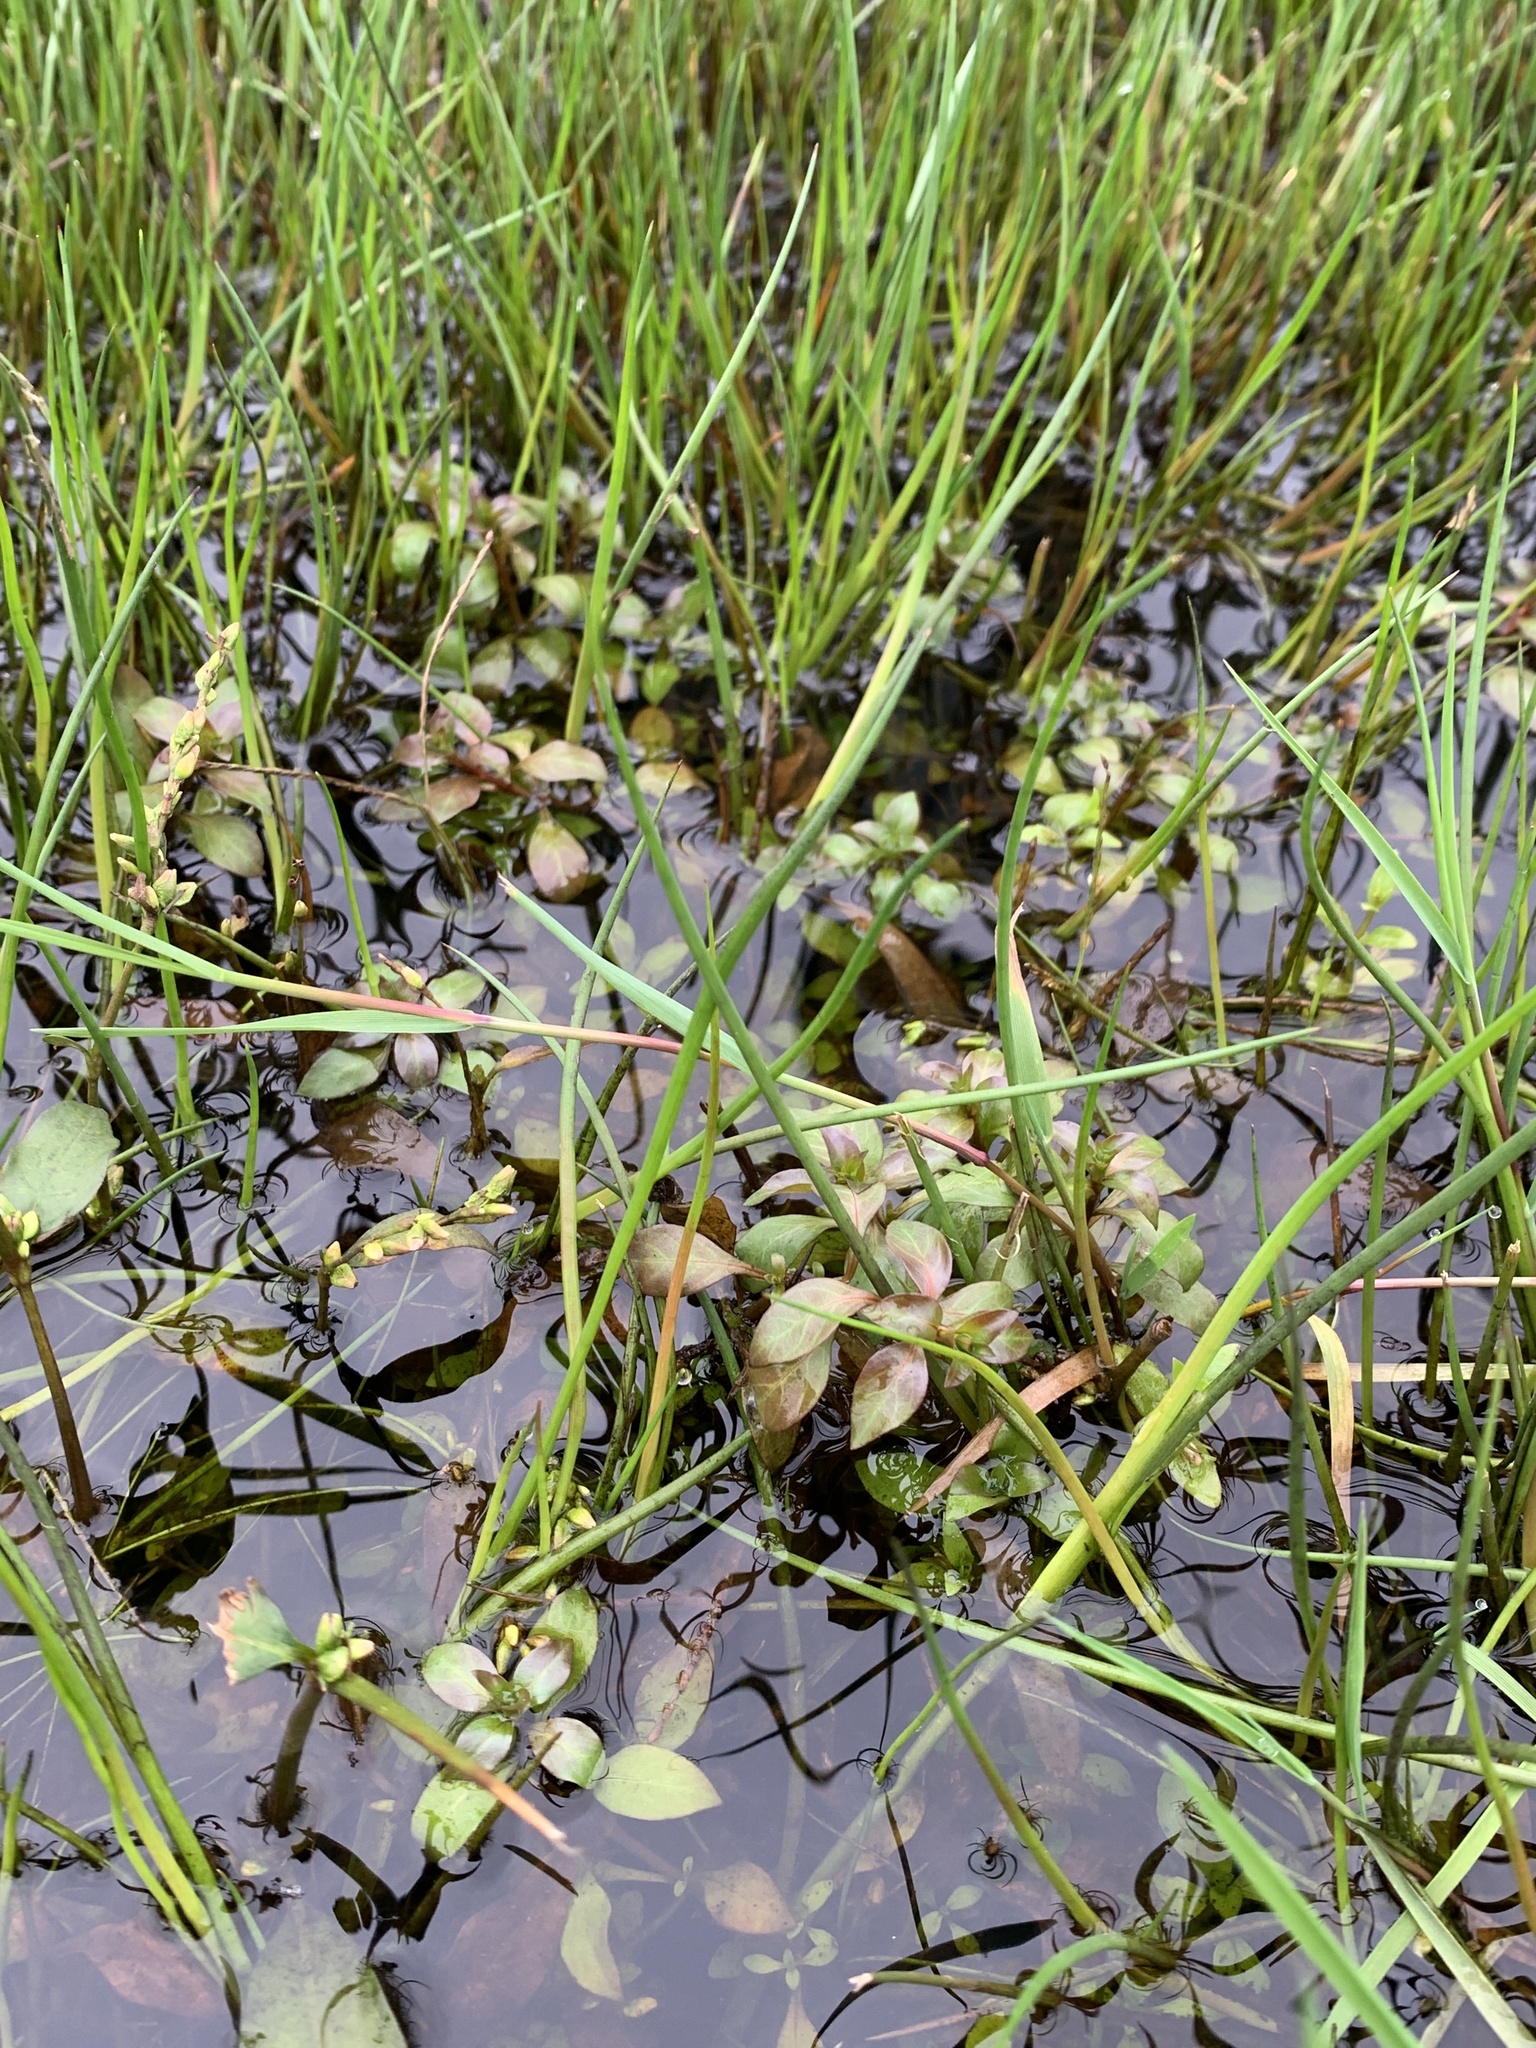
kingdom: Plantae
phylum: Tracheophyta
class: Magnoliopsida
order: Myrtales
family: Onagraceae
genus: Ludwigia
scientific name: Ludwigia palustris
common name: Hampshire-purslane
